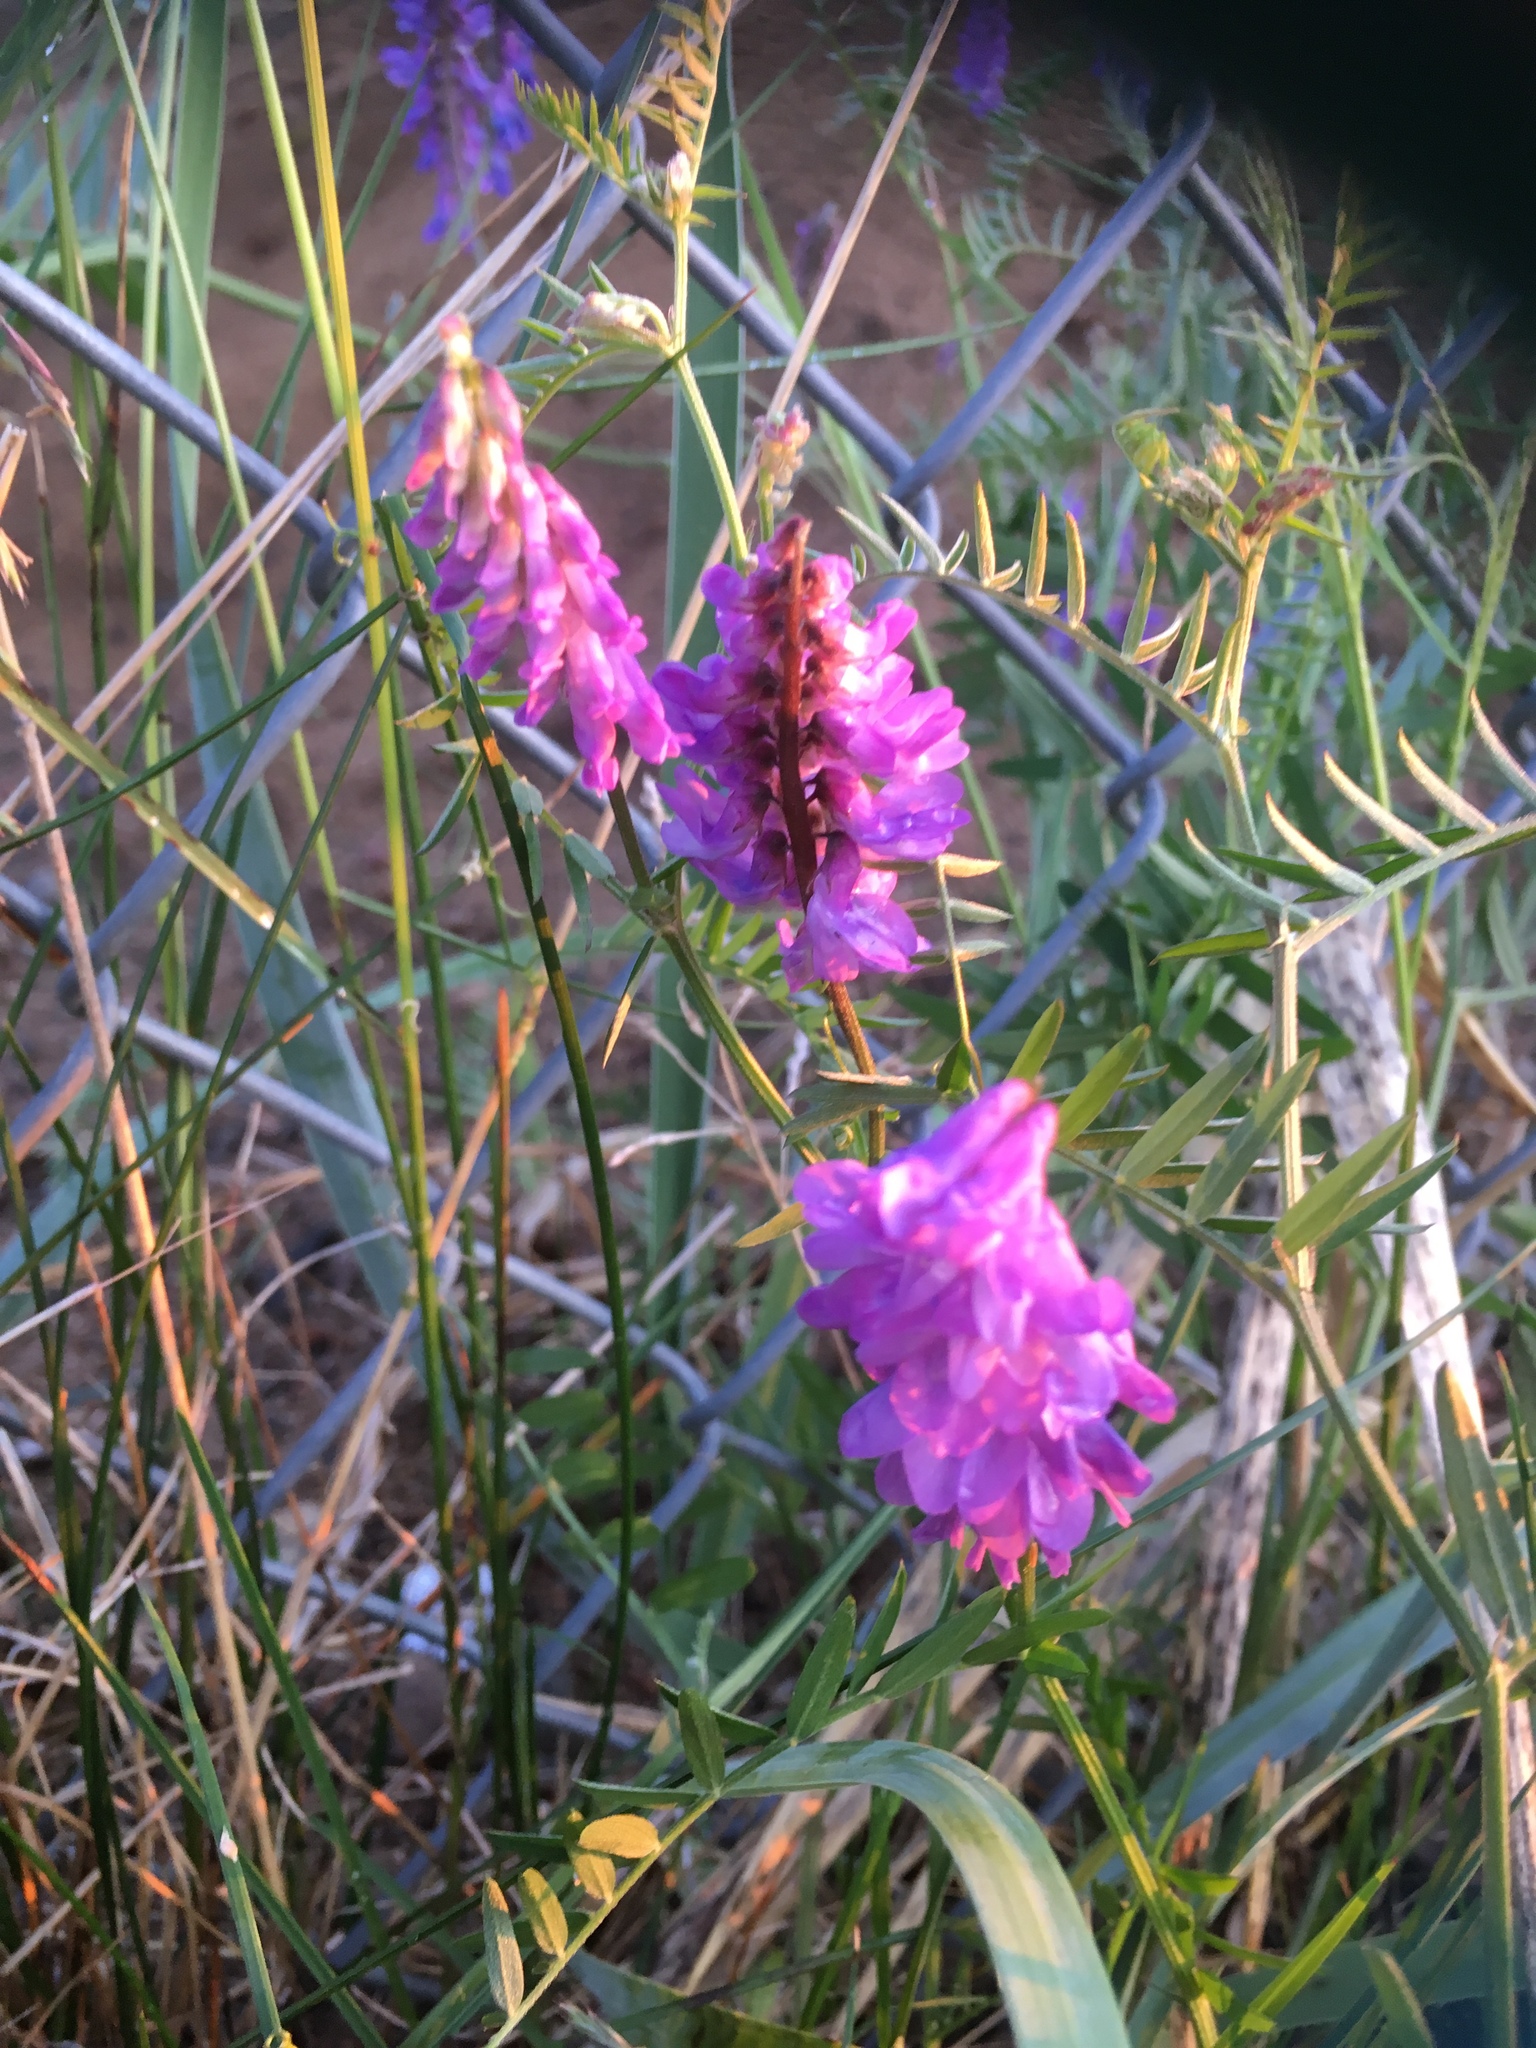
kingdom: Plantae
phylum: Tracheophyta
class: Magnoliopsida
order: Fabales
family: Fabaceae
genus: Vicia
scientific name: Vicia cracca
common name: Bird vetch
